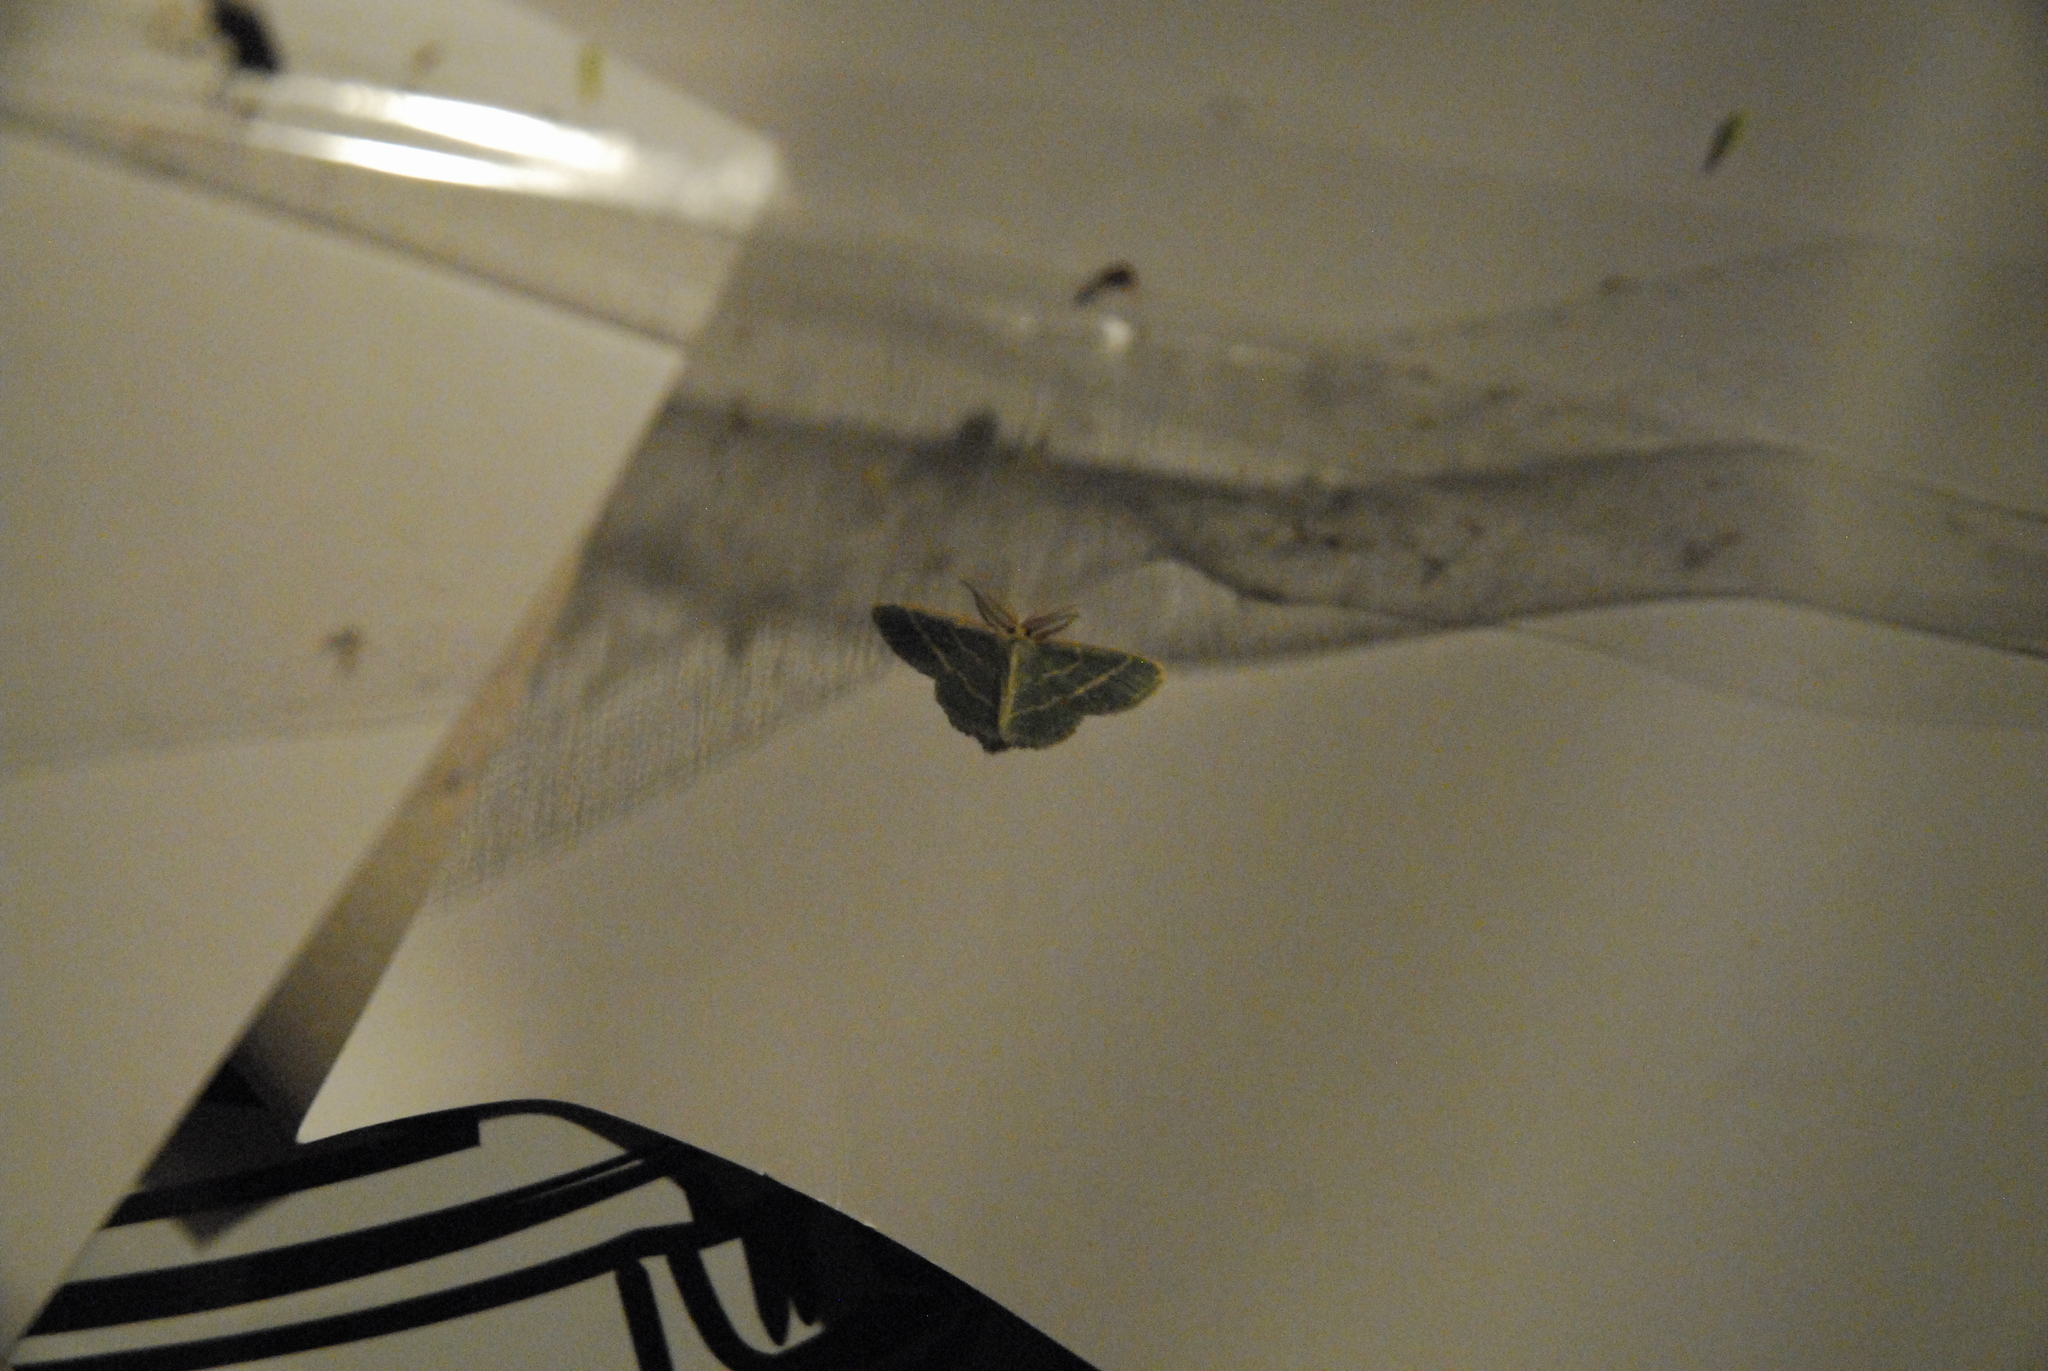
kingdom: Animalia
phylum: Arthropoda
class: Insecta
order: Lepidoptera
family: Geometridae
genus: Chlorochlamys
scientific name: Chlorochlamys chloroleucaria
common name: Blackberry looper
